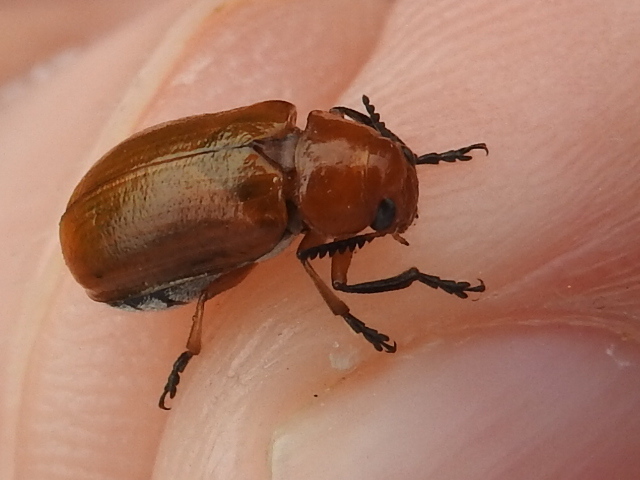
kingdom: Animalia
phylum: Arthropoda
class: Insecta
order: Coleoptera
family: Chrysomelidae
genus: Anomoea
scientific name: Anomoea laticlavia
